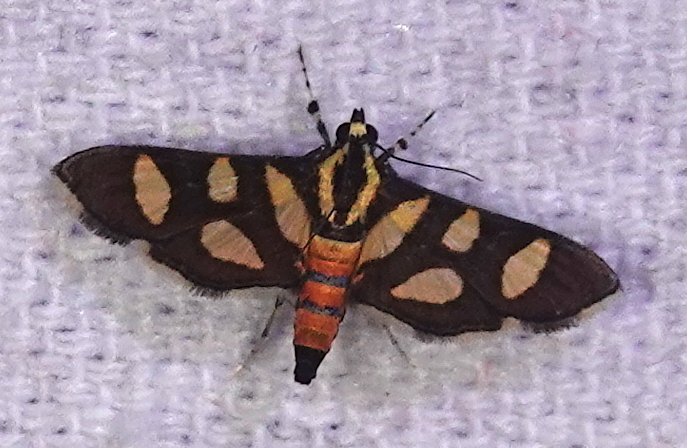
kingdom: Animalia
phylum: Arthropoda
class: Insecta
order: Lepidoptera
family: Crambidae
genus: Syngamia
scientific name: Syngamia florella
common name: Orange-spotted flower moth
